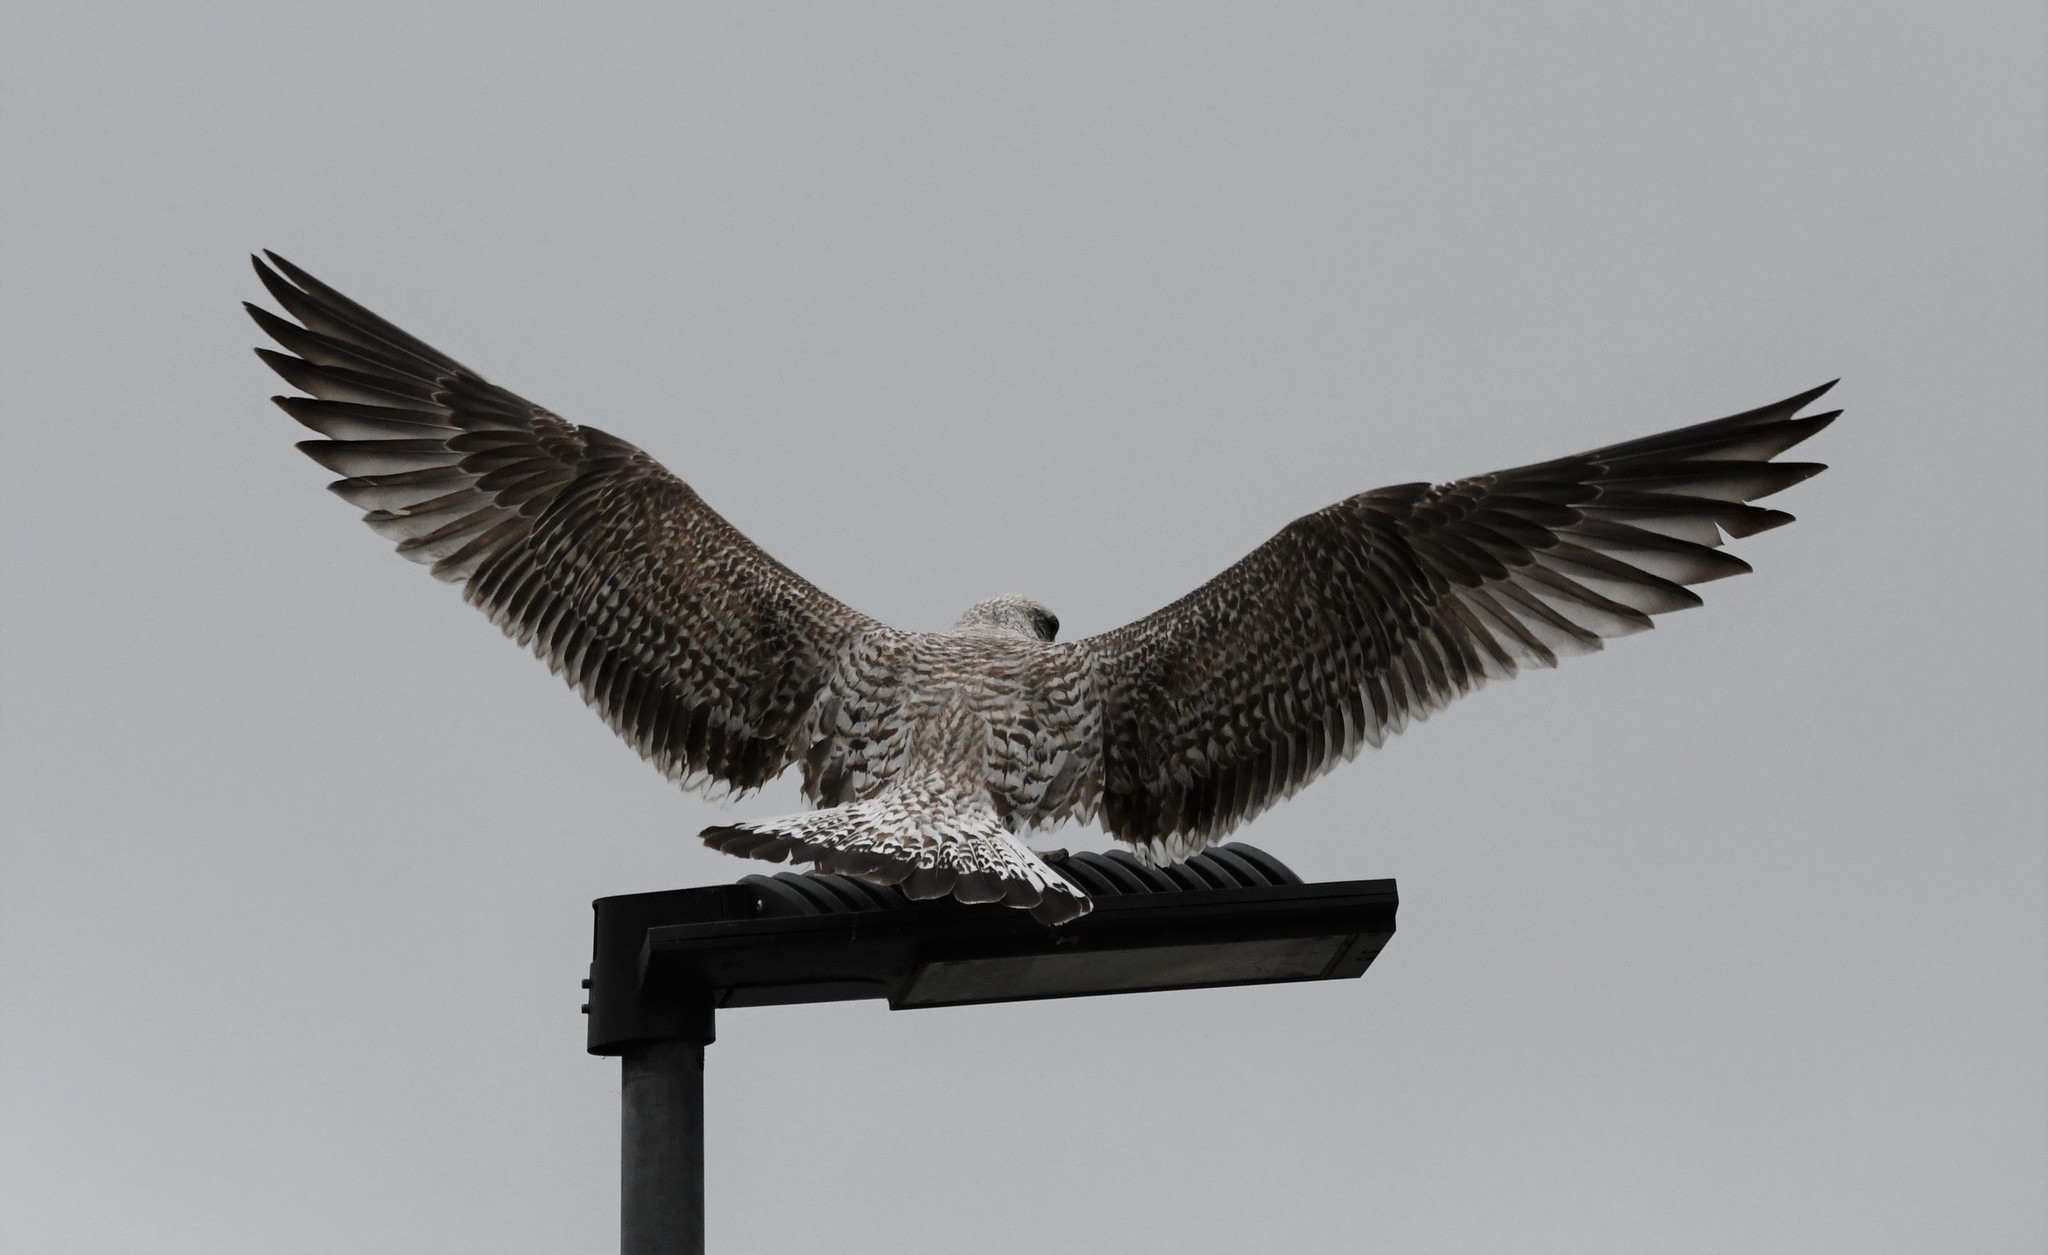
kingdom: Animalia
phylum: Chordata
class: Aves
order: Charadriiformes
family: Laridae
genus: Larus
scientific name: Larus michahellis
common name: Yellow-legged gull
